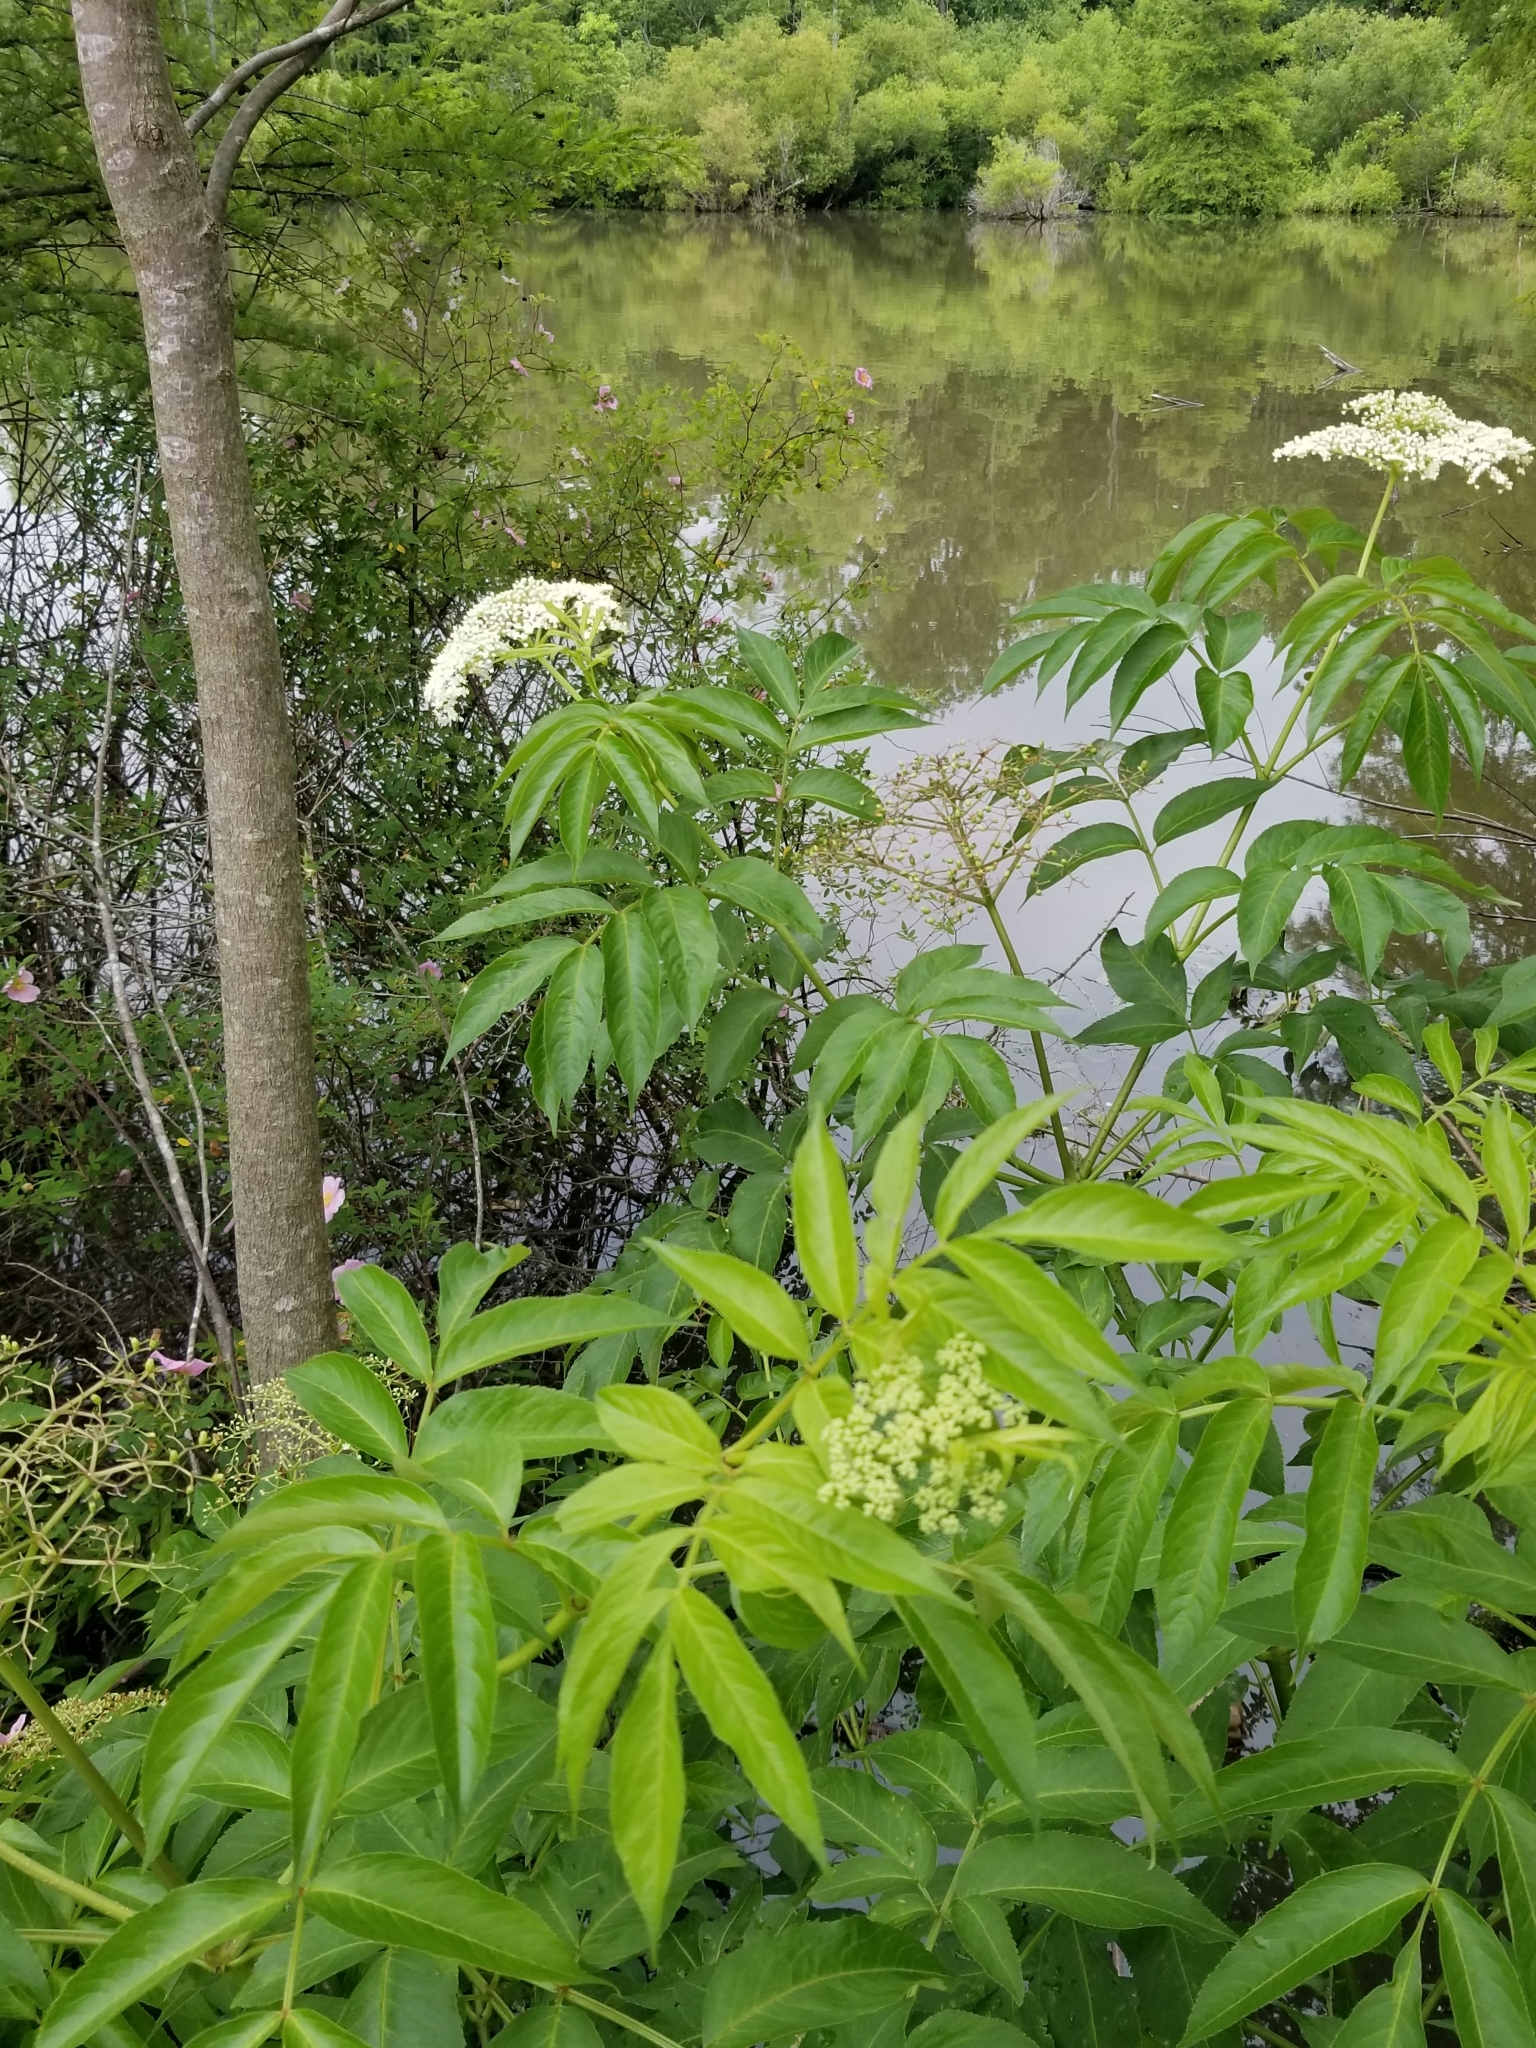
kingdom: Plantae
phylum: Tracheophyta
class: Magnoliopsida
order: Dipsacales
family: Viburnaceae
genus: Sambucus
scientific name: Sambucus canadensis
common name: American elder
